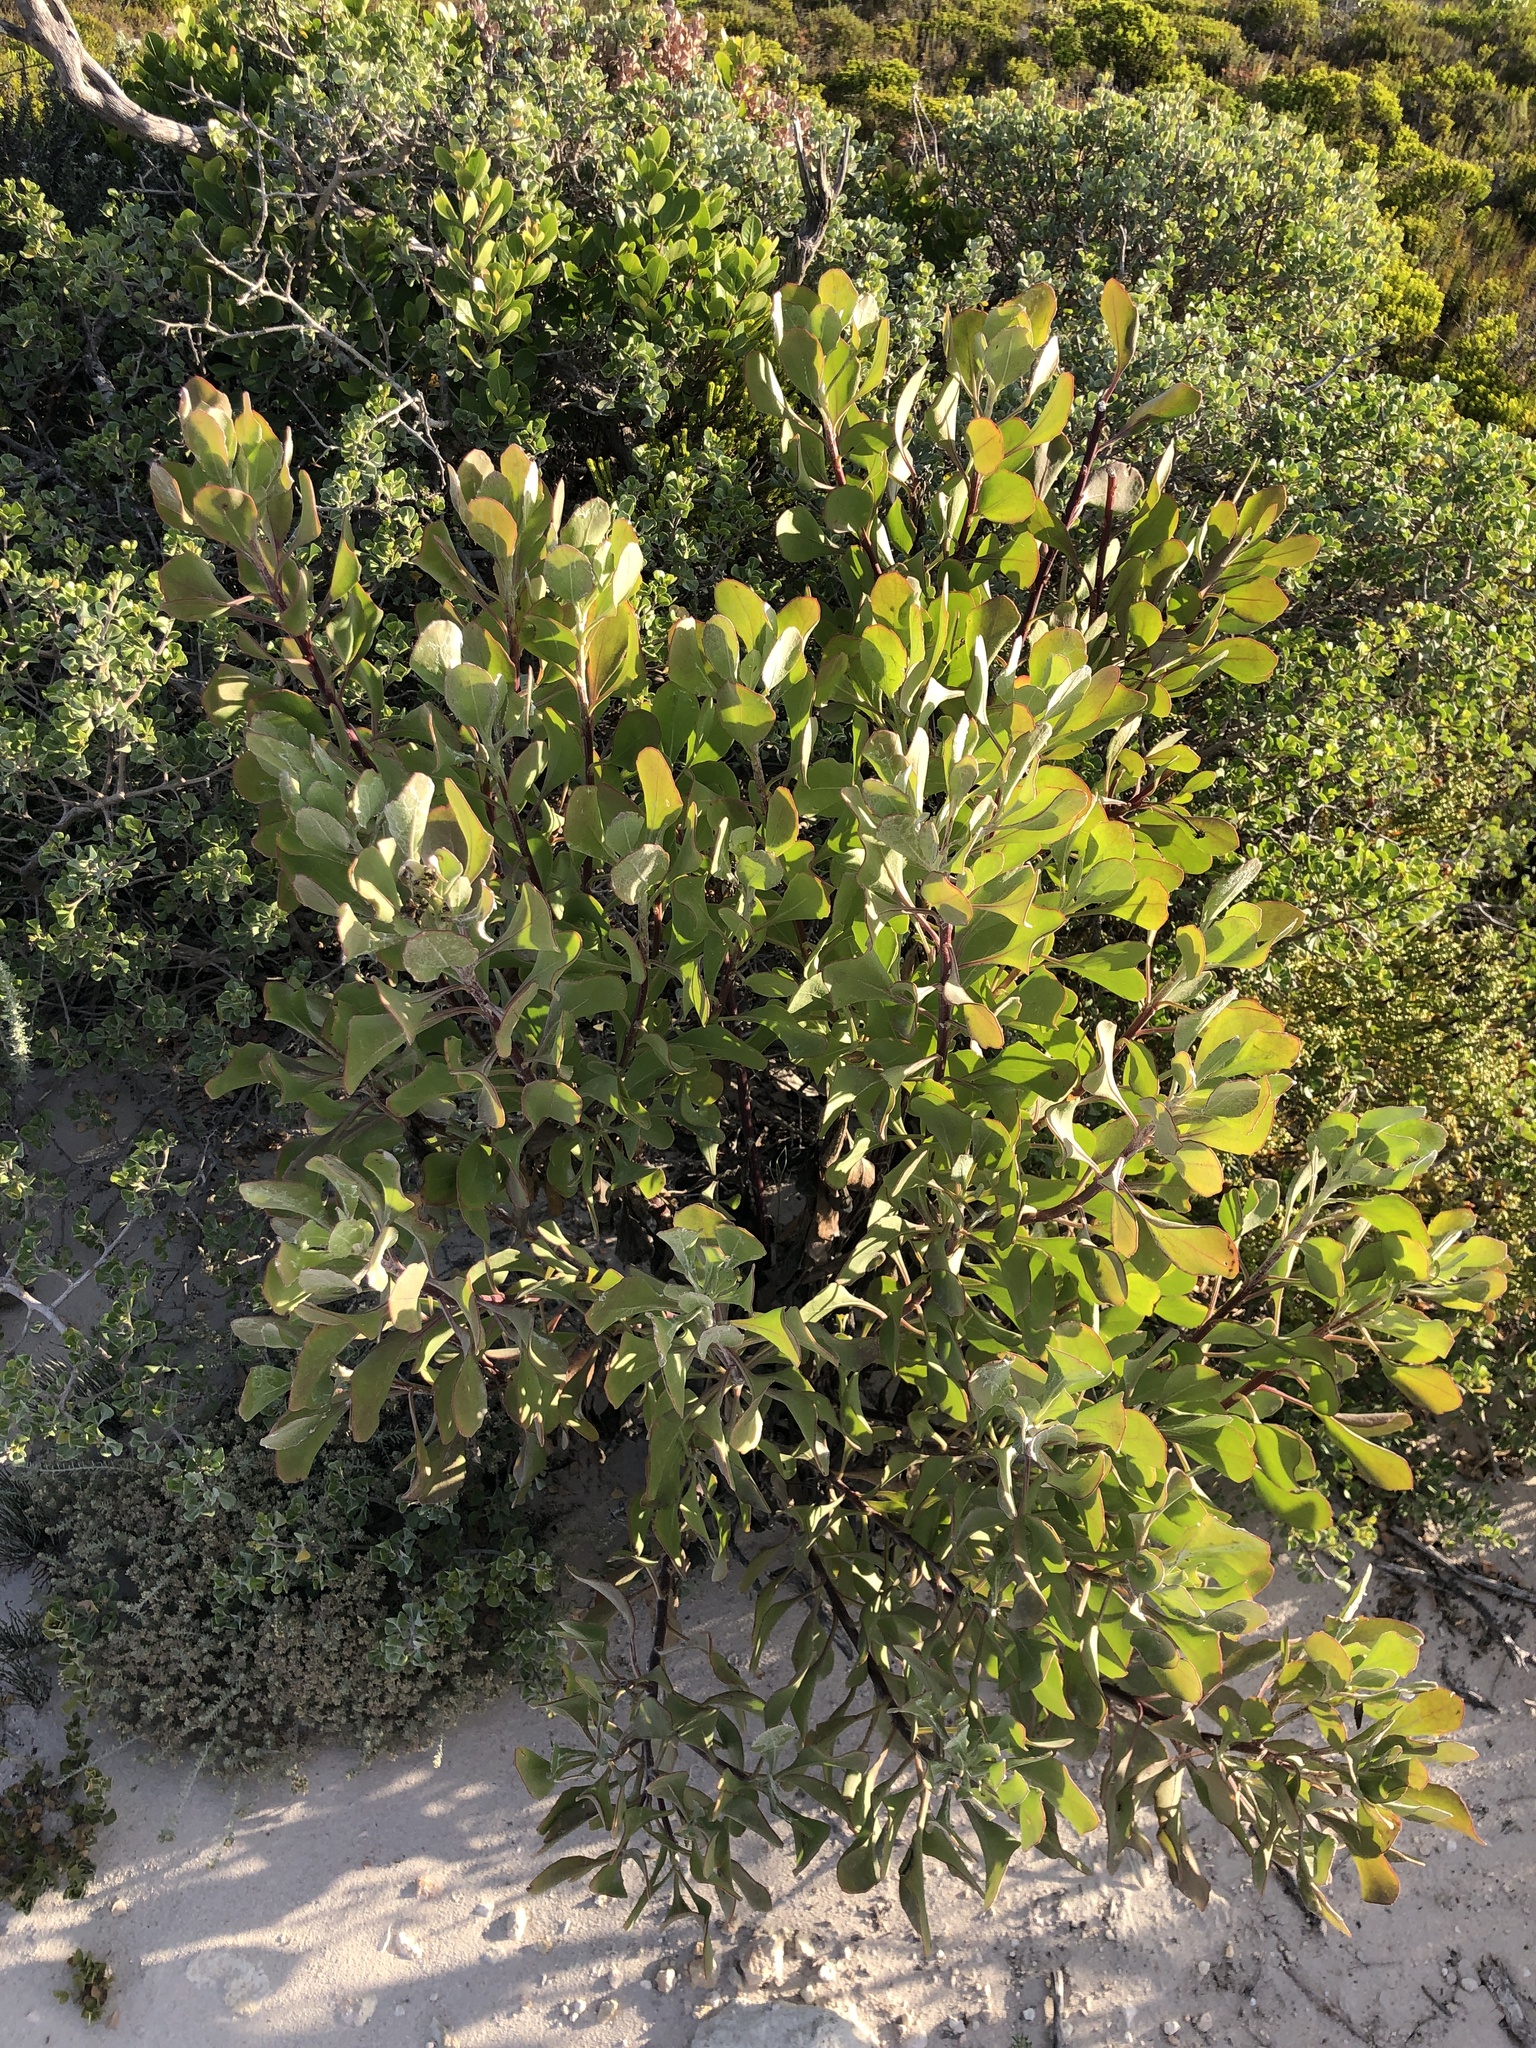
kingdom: Plantae
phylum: Tracheophyta
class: Magnoliopsida
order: Asterales
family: Asteraceae
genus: Osteospermum
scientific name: Osteospermum moniliferum
